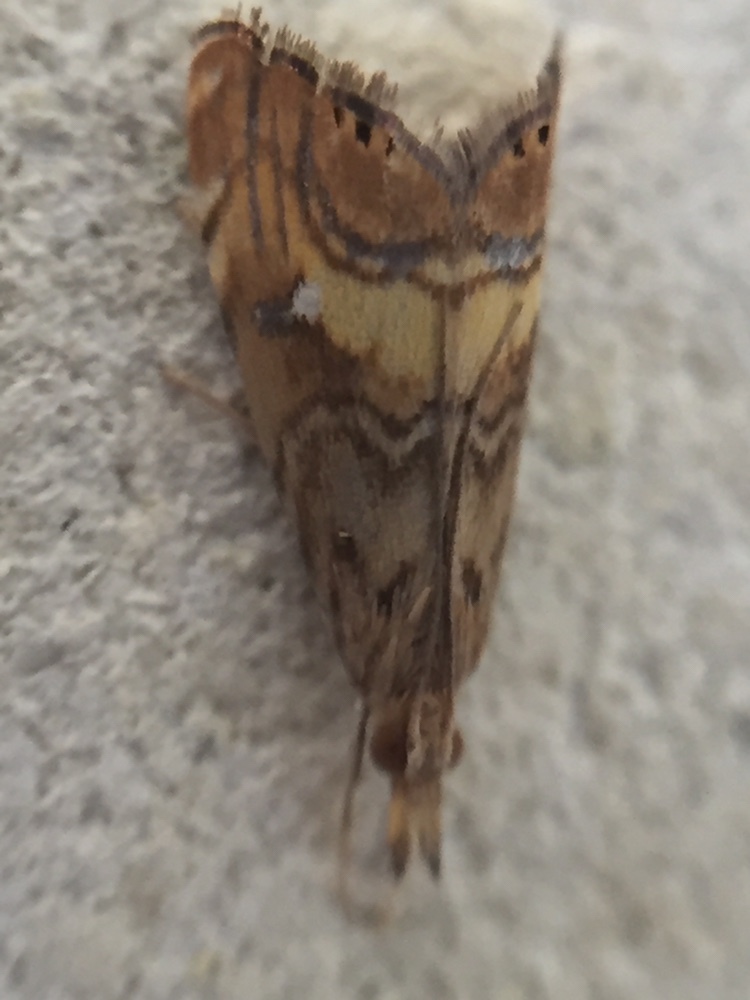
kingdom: Animalia
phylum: Arthropoda
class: Insecta
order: Lepidoptera
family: Crambidae
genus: Glaucocharis
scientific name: Glaucocharis chrysochyta
